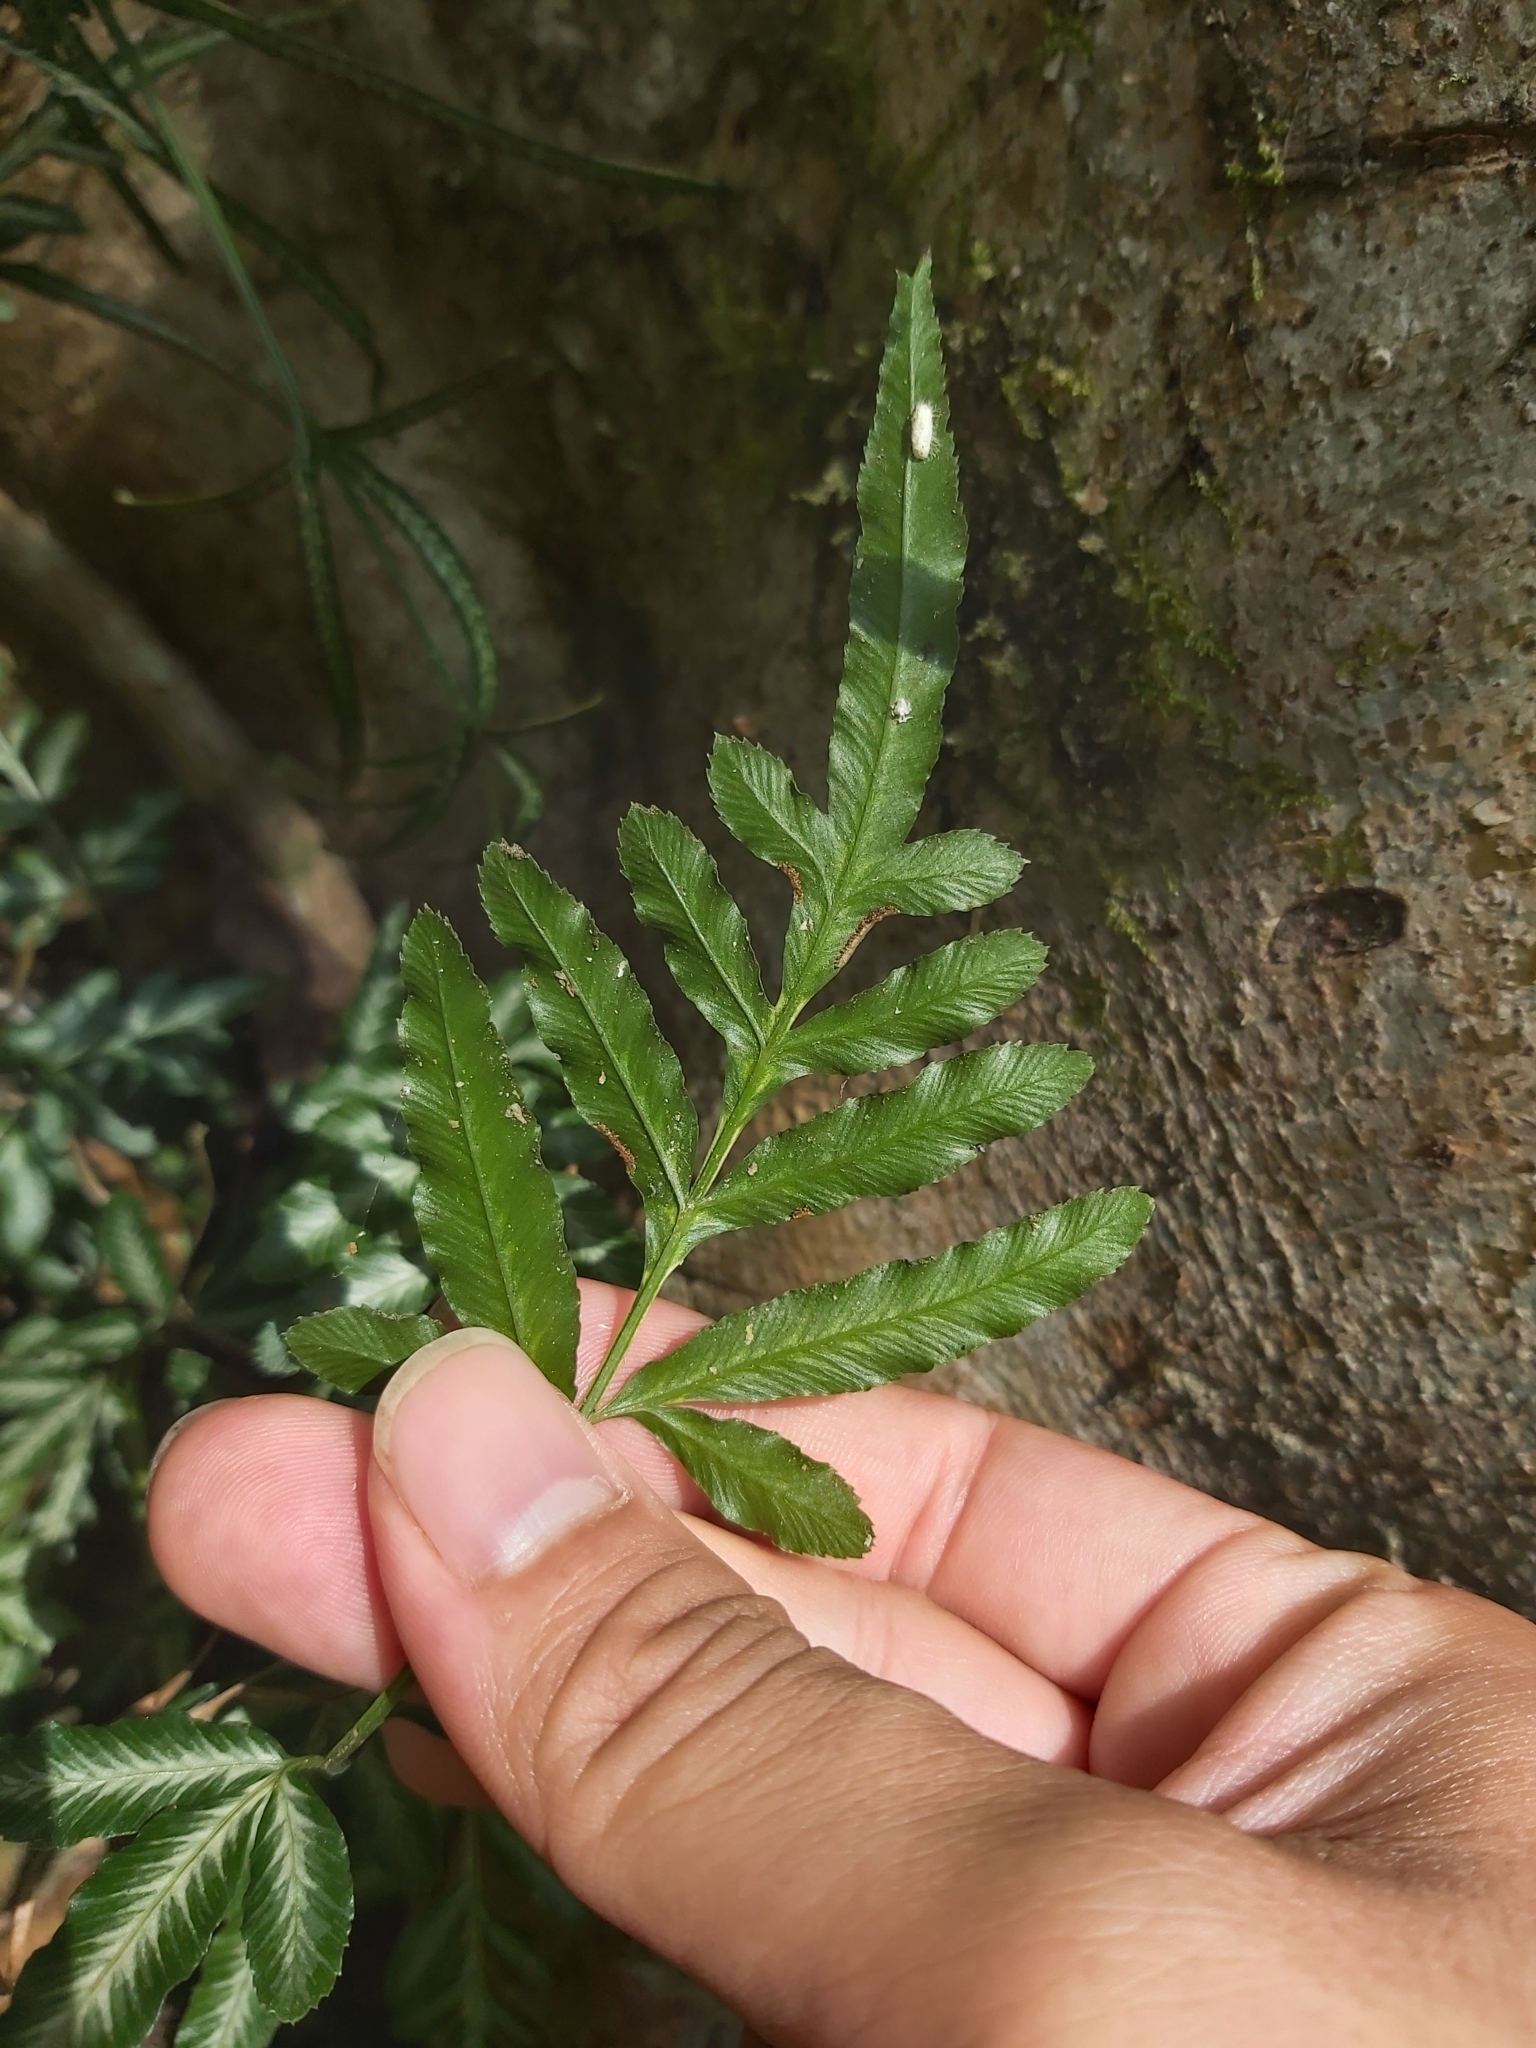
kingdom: Plantae
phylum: Tracheophyta
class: Polypodiopsida
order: Polypodiales
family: Pteridaceae
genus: Pteris
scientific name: Pteris ensiformis
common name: Sword brake
